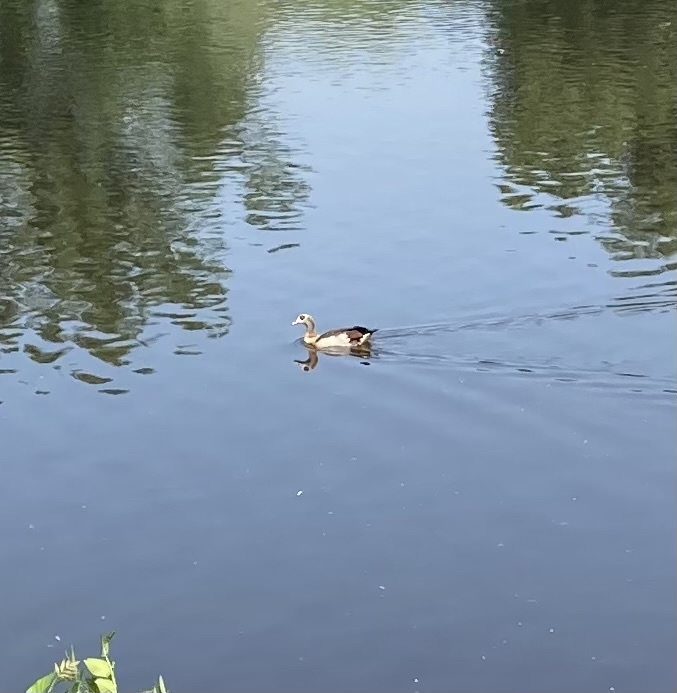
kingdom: Animalia
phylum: Chordata
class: Aves
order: Anseriformes
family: Anatidae
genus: Alopochen
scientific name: Alopochen aegyptiaca
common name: Egyptian goose
